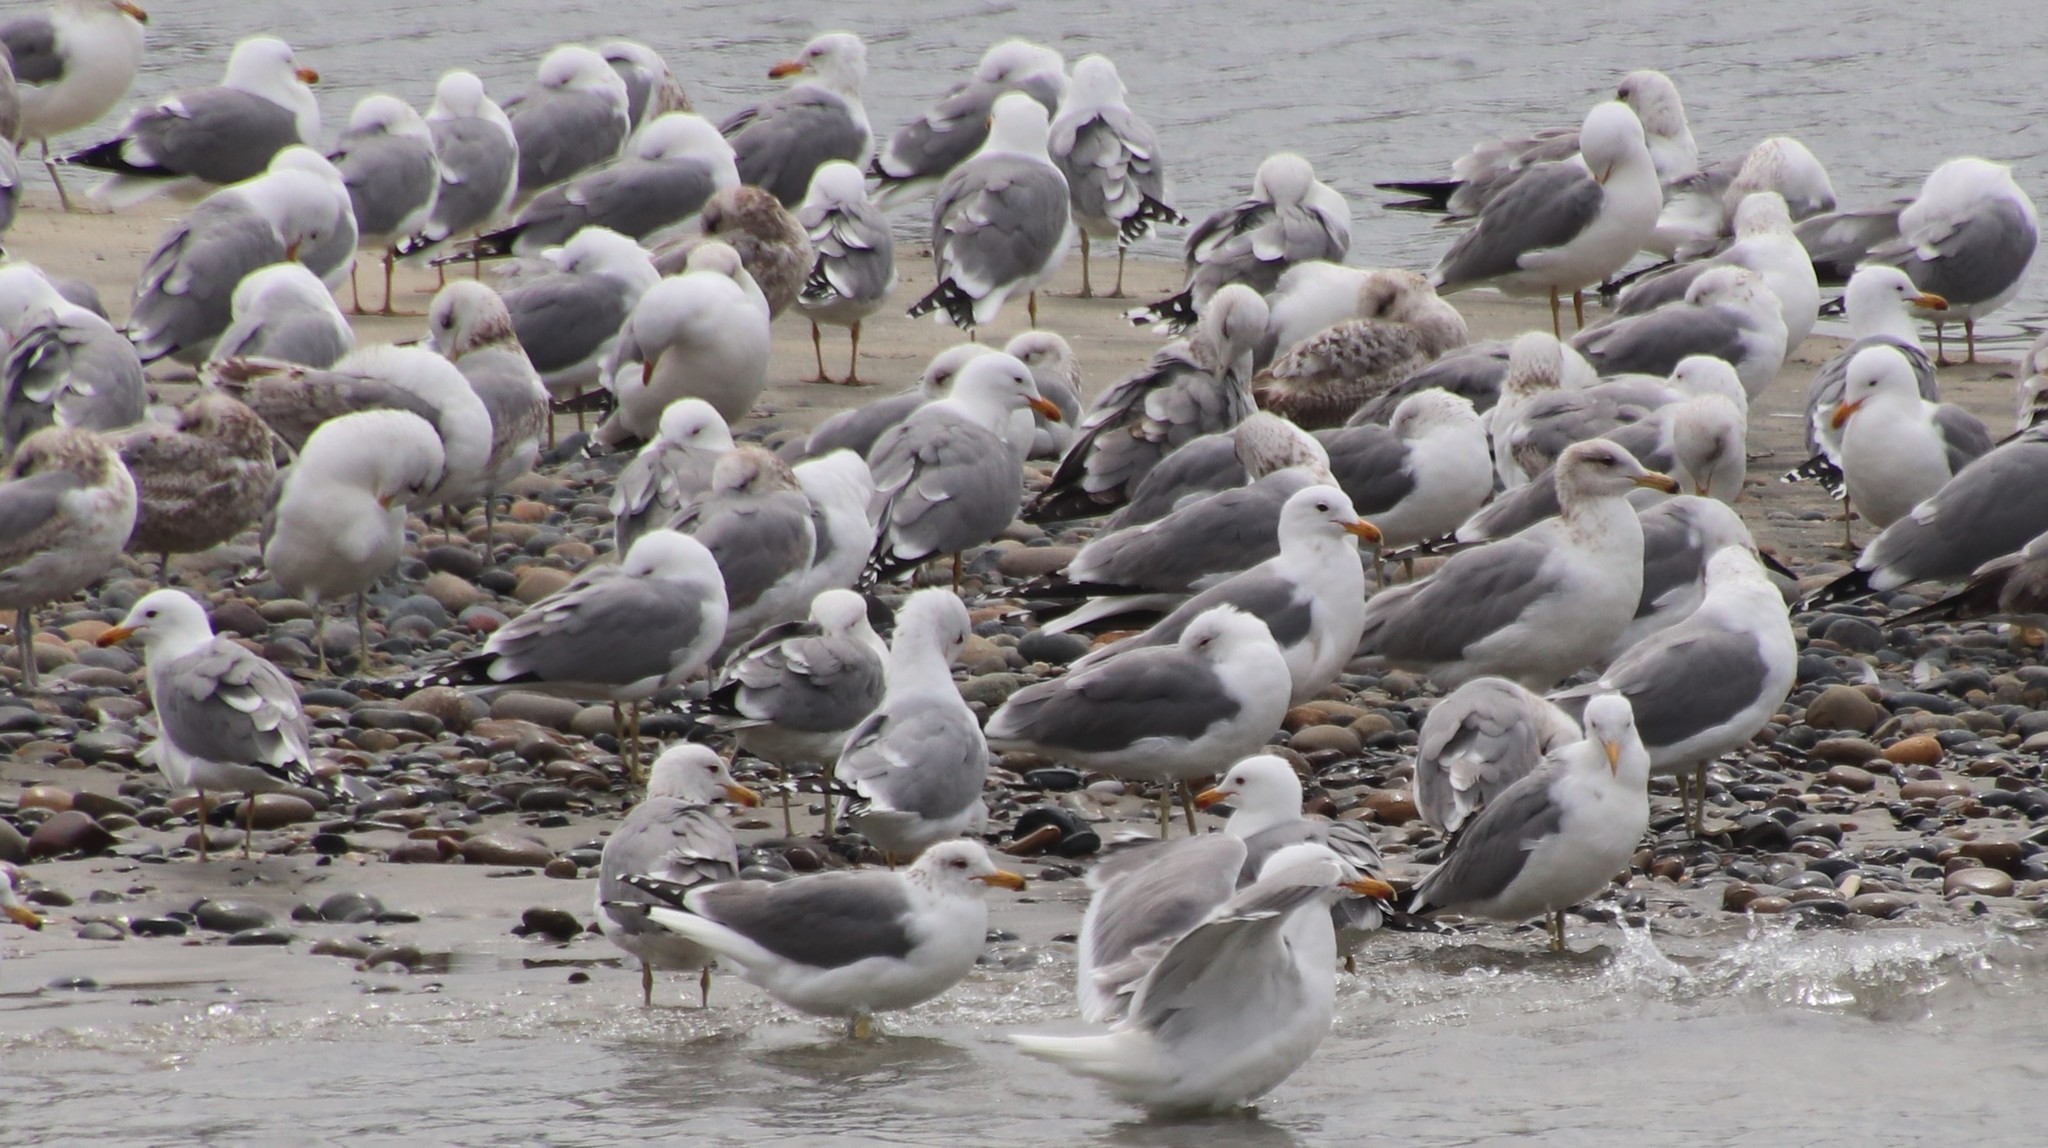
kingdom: Animalia
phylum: Chordata
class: Aves
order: Charadriiformes
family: Laridae
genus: Larus
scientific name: Larus californicus
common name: California gull
